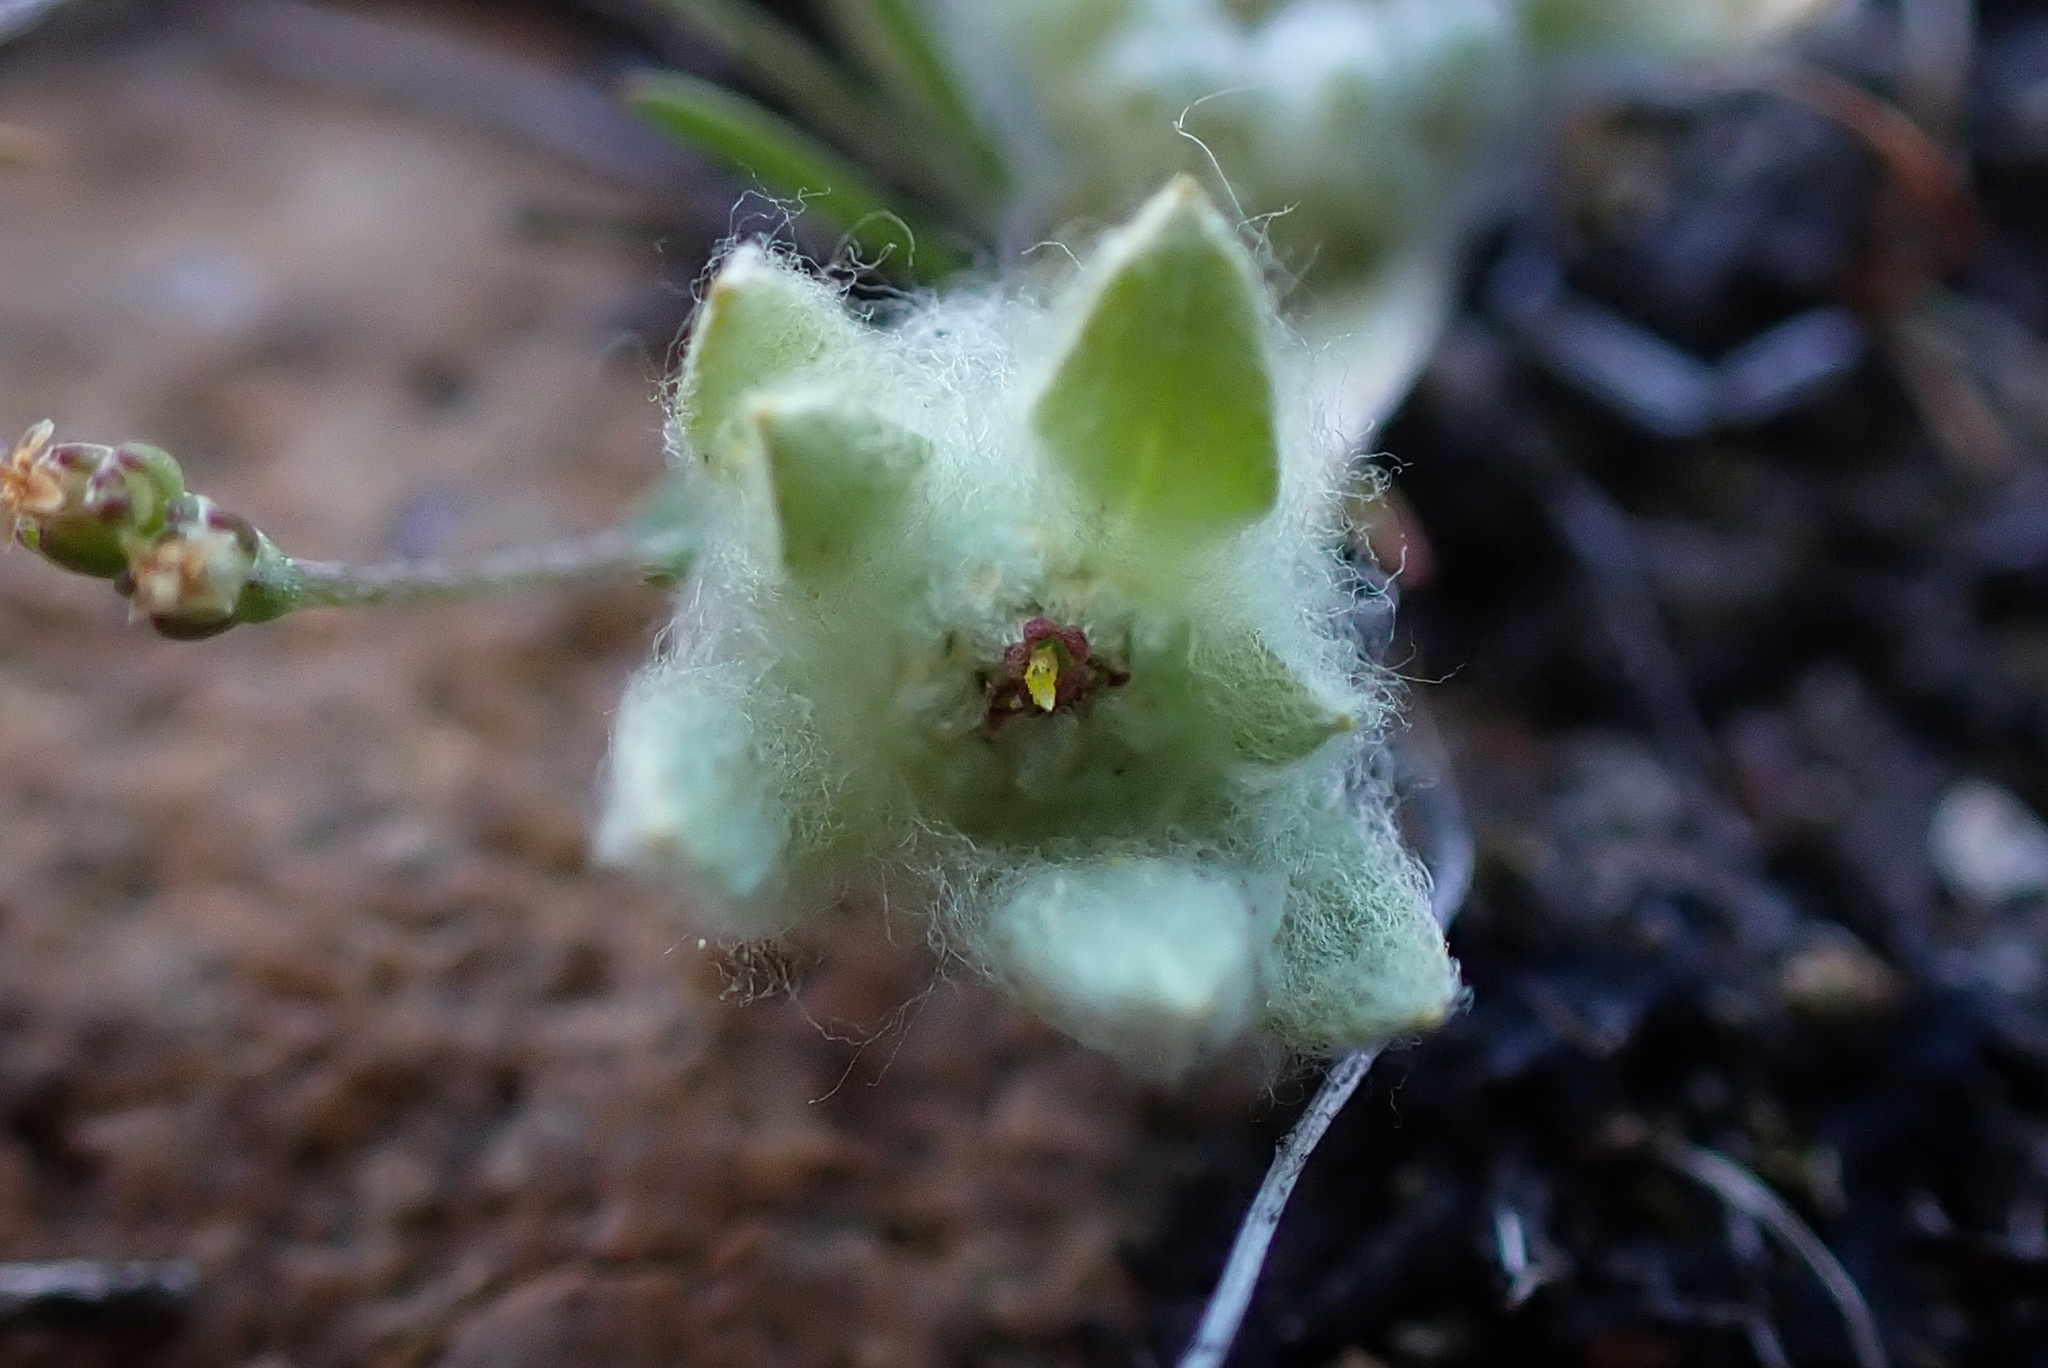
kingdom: Plantae
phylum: Tracheophyta
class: Magnoliopsida
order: Asterales
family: Asteraceae
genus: Psilocarphus
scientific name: Psilocarphus brevissimus
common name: Dwarf woollyheads
